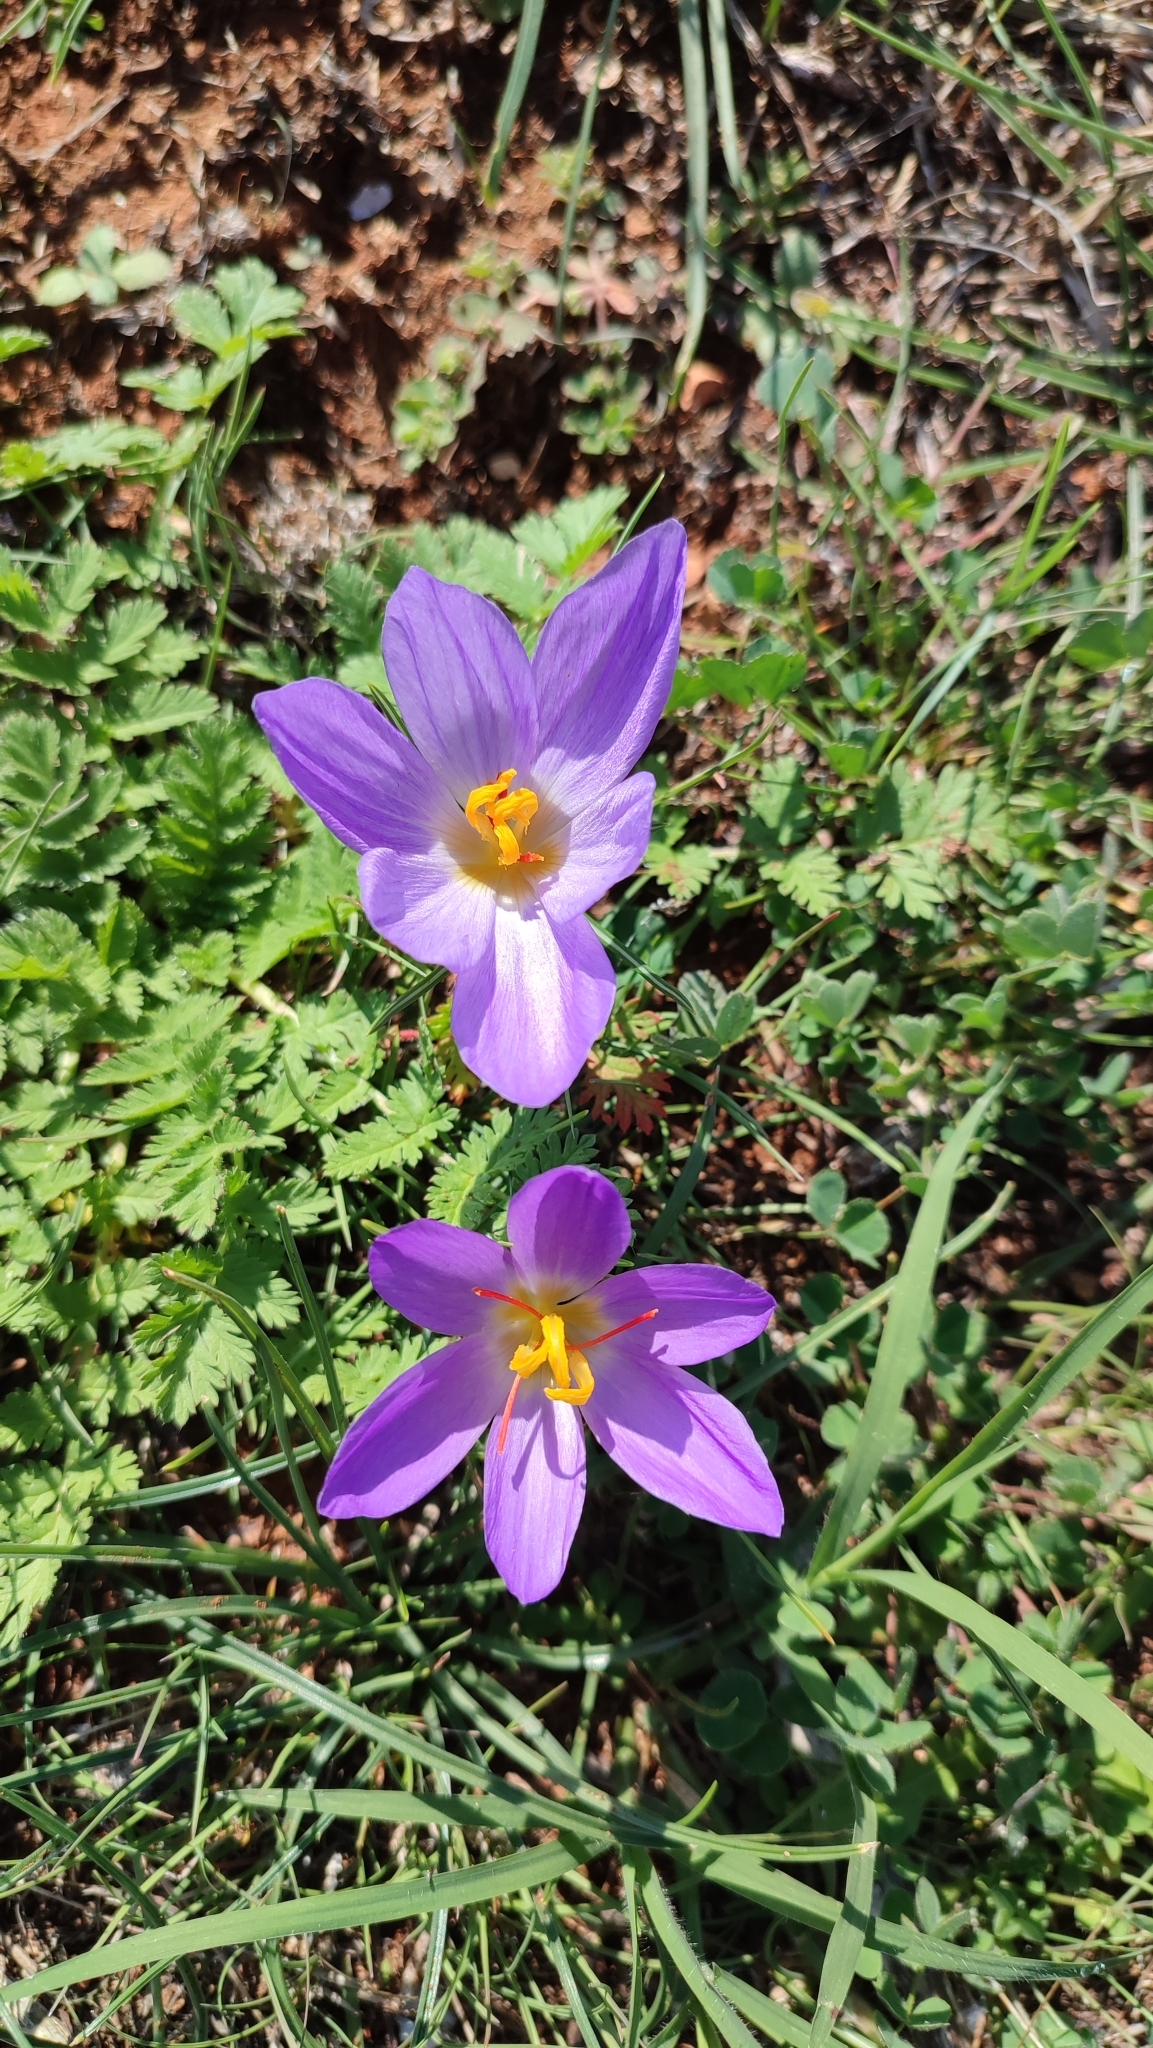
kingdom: Plantae
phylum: Tracheophyta
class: Liliopsida
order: Asparagales
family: Iridaceae
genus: Crocus
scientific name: Crocus thomasii
